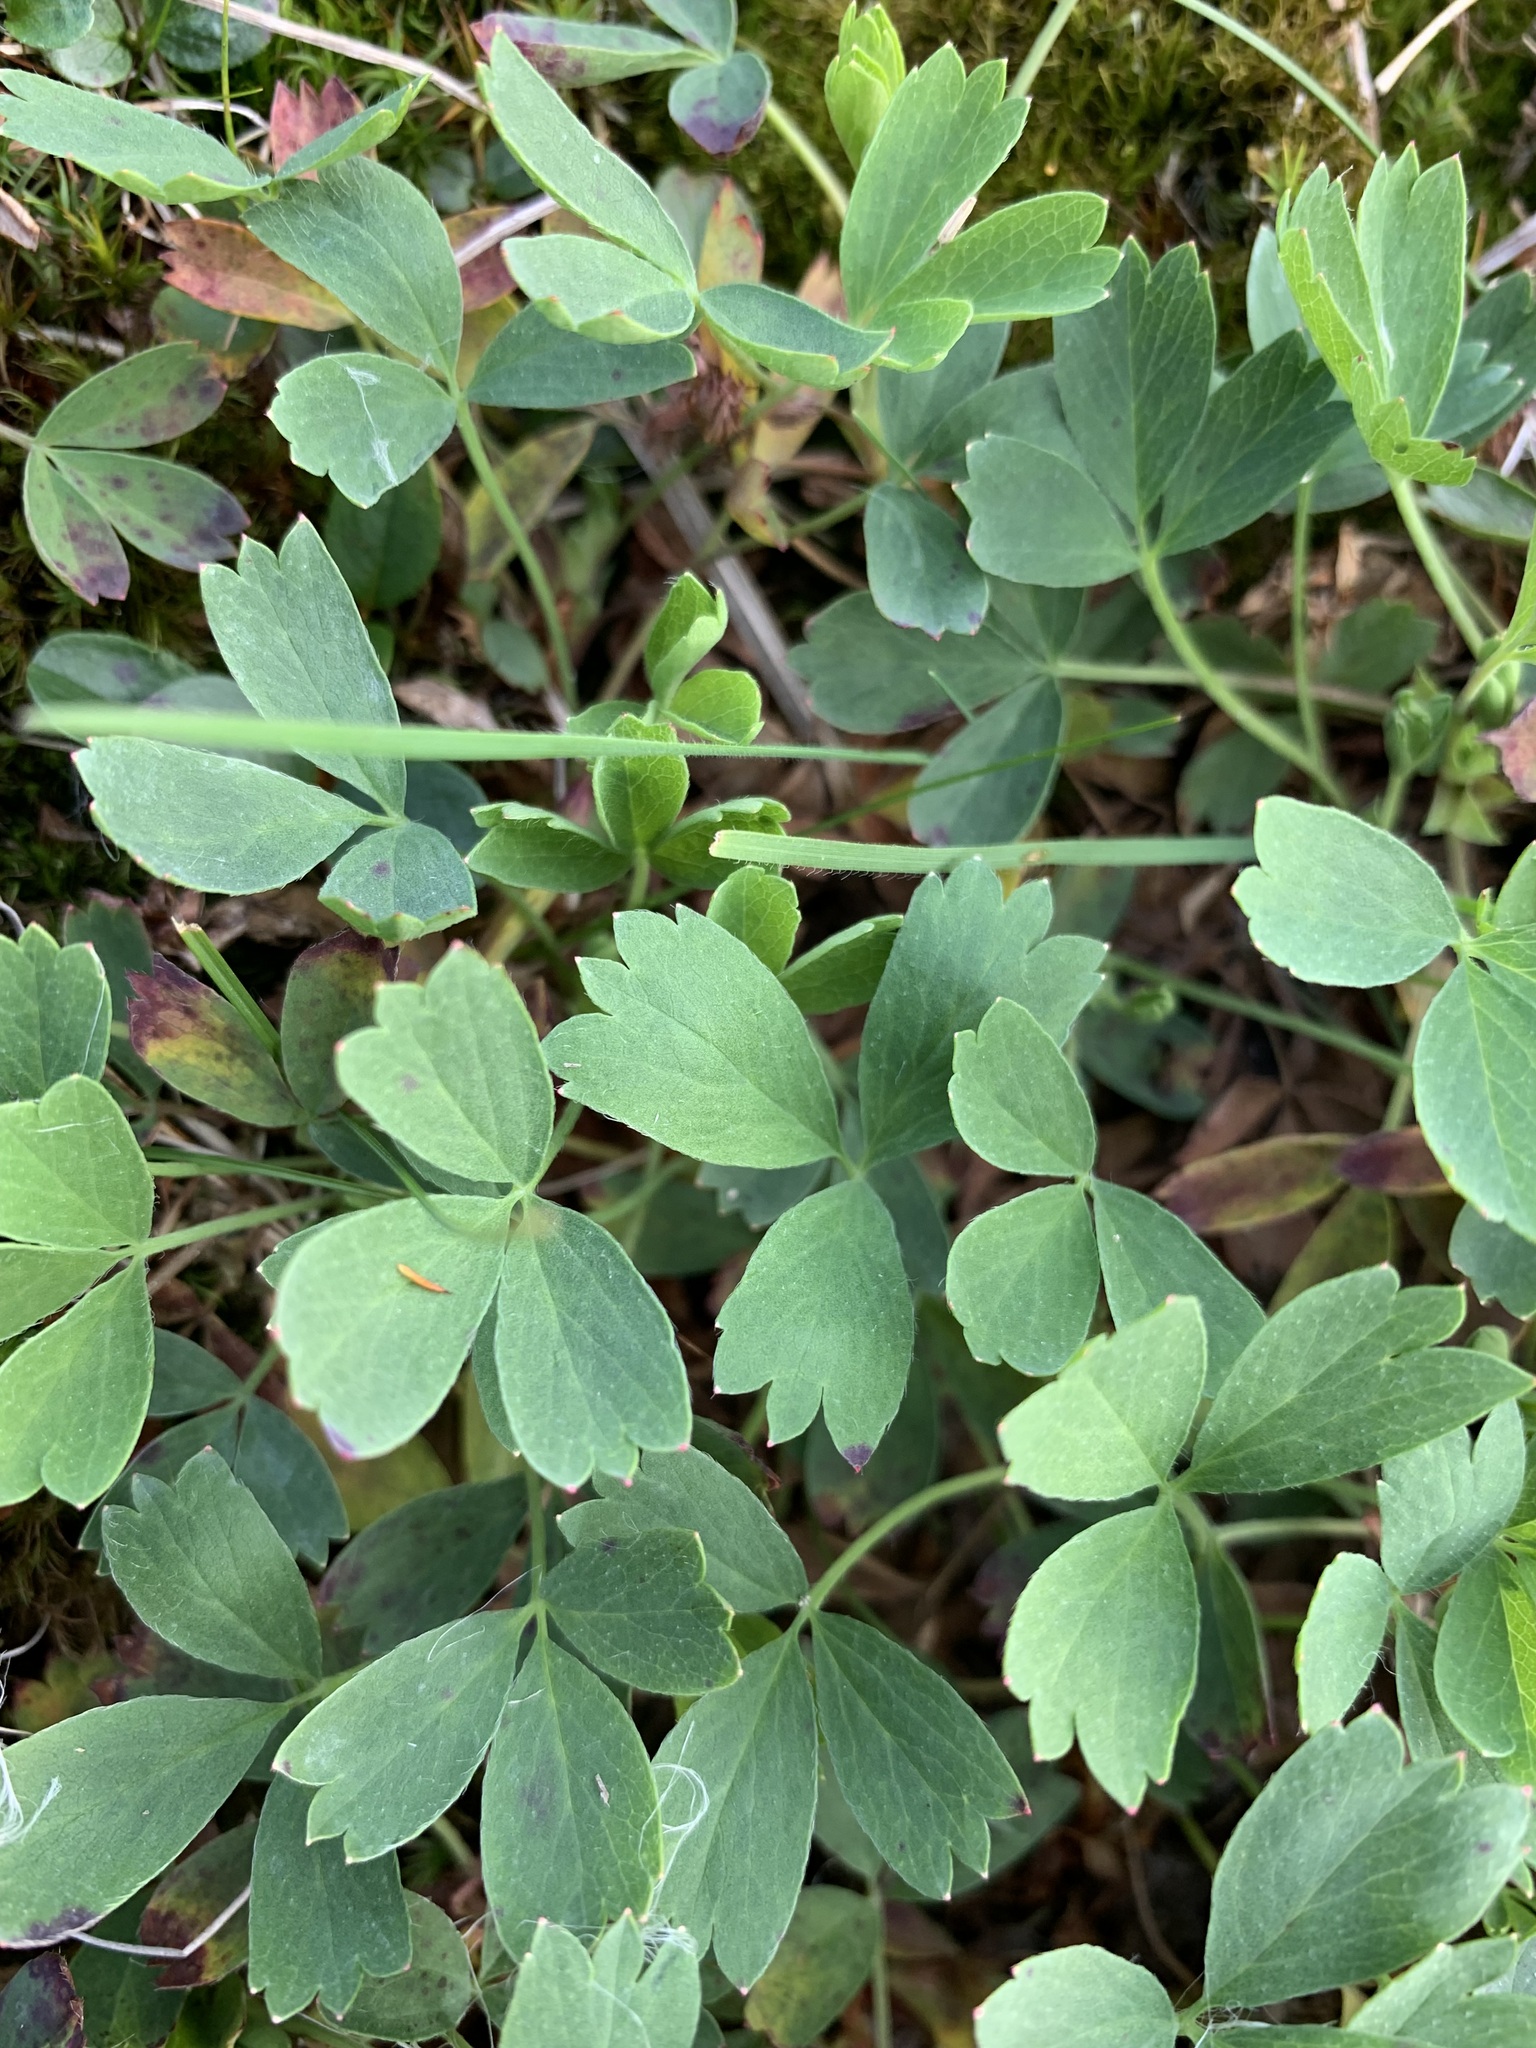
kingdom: Plantae
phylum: Tracheophyta
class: Magnoliopsida
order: Rosales
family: Rosaceae
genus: Sibbaldia
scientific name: Sibbaldia procumbens
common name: Creeping sibbaldia
